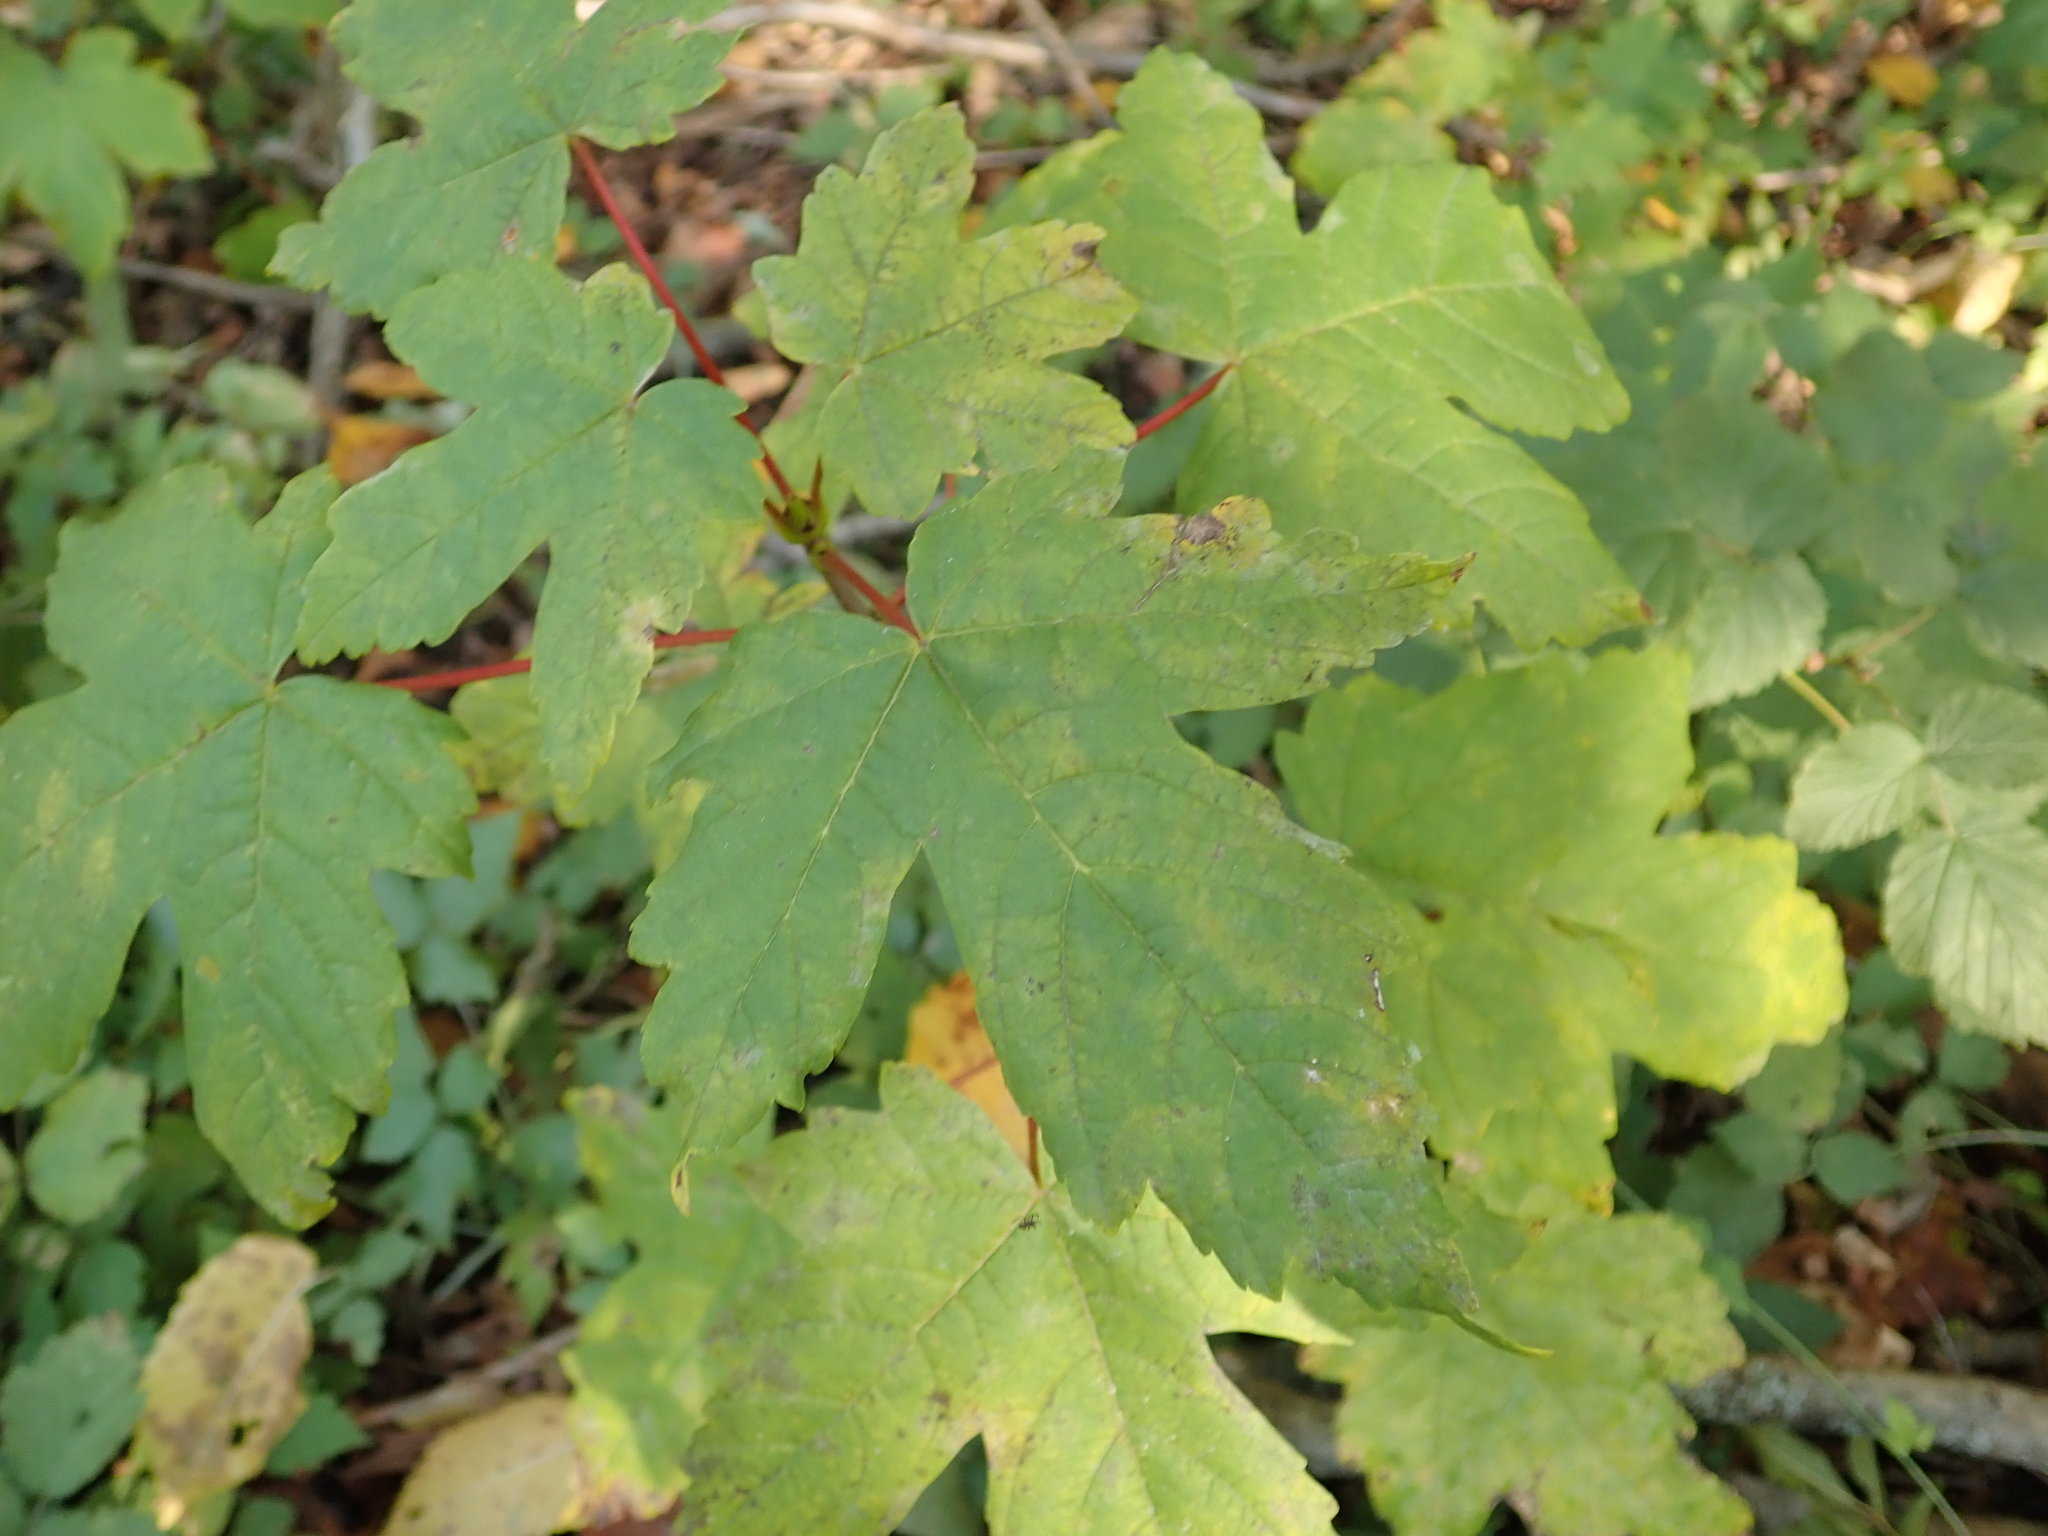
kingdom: Plantae
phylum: Tracheophyta
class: Magnoliopsida
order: Sapindales
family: Sapindaceae
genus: Acer
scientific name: Acer pseudoplatanus
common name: Sycamore
